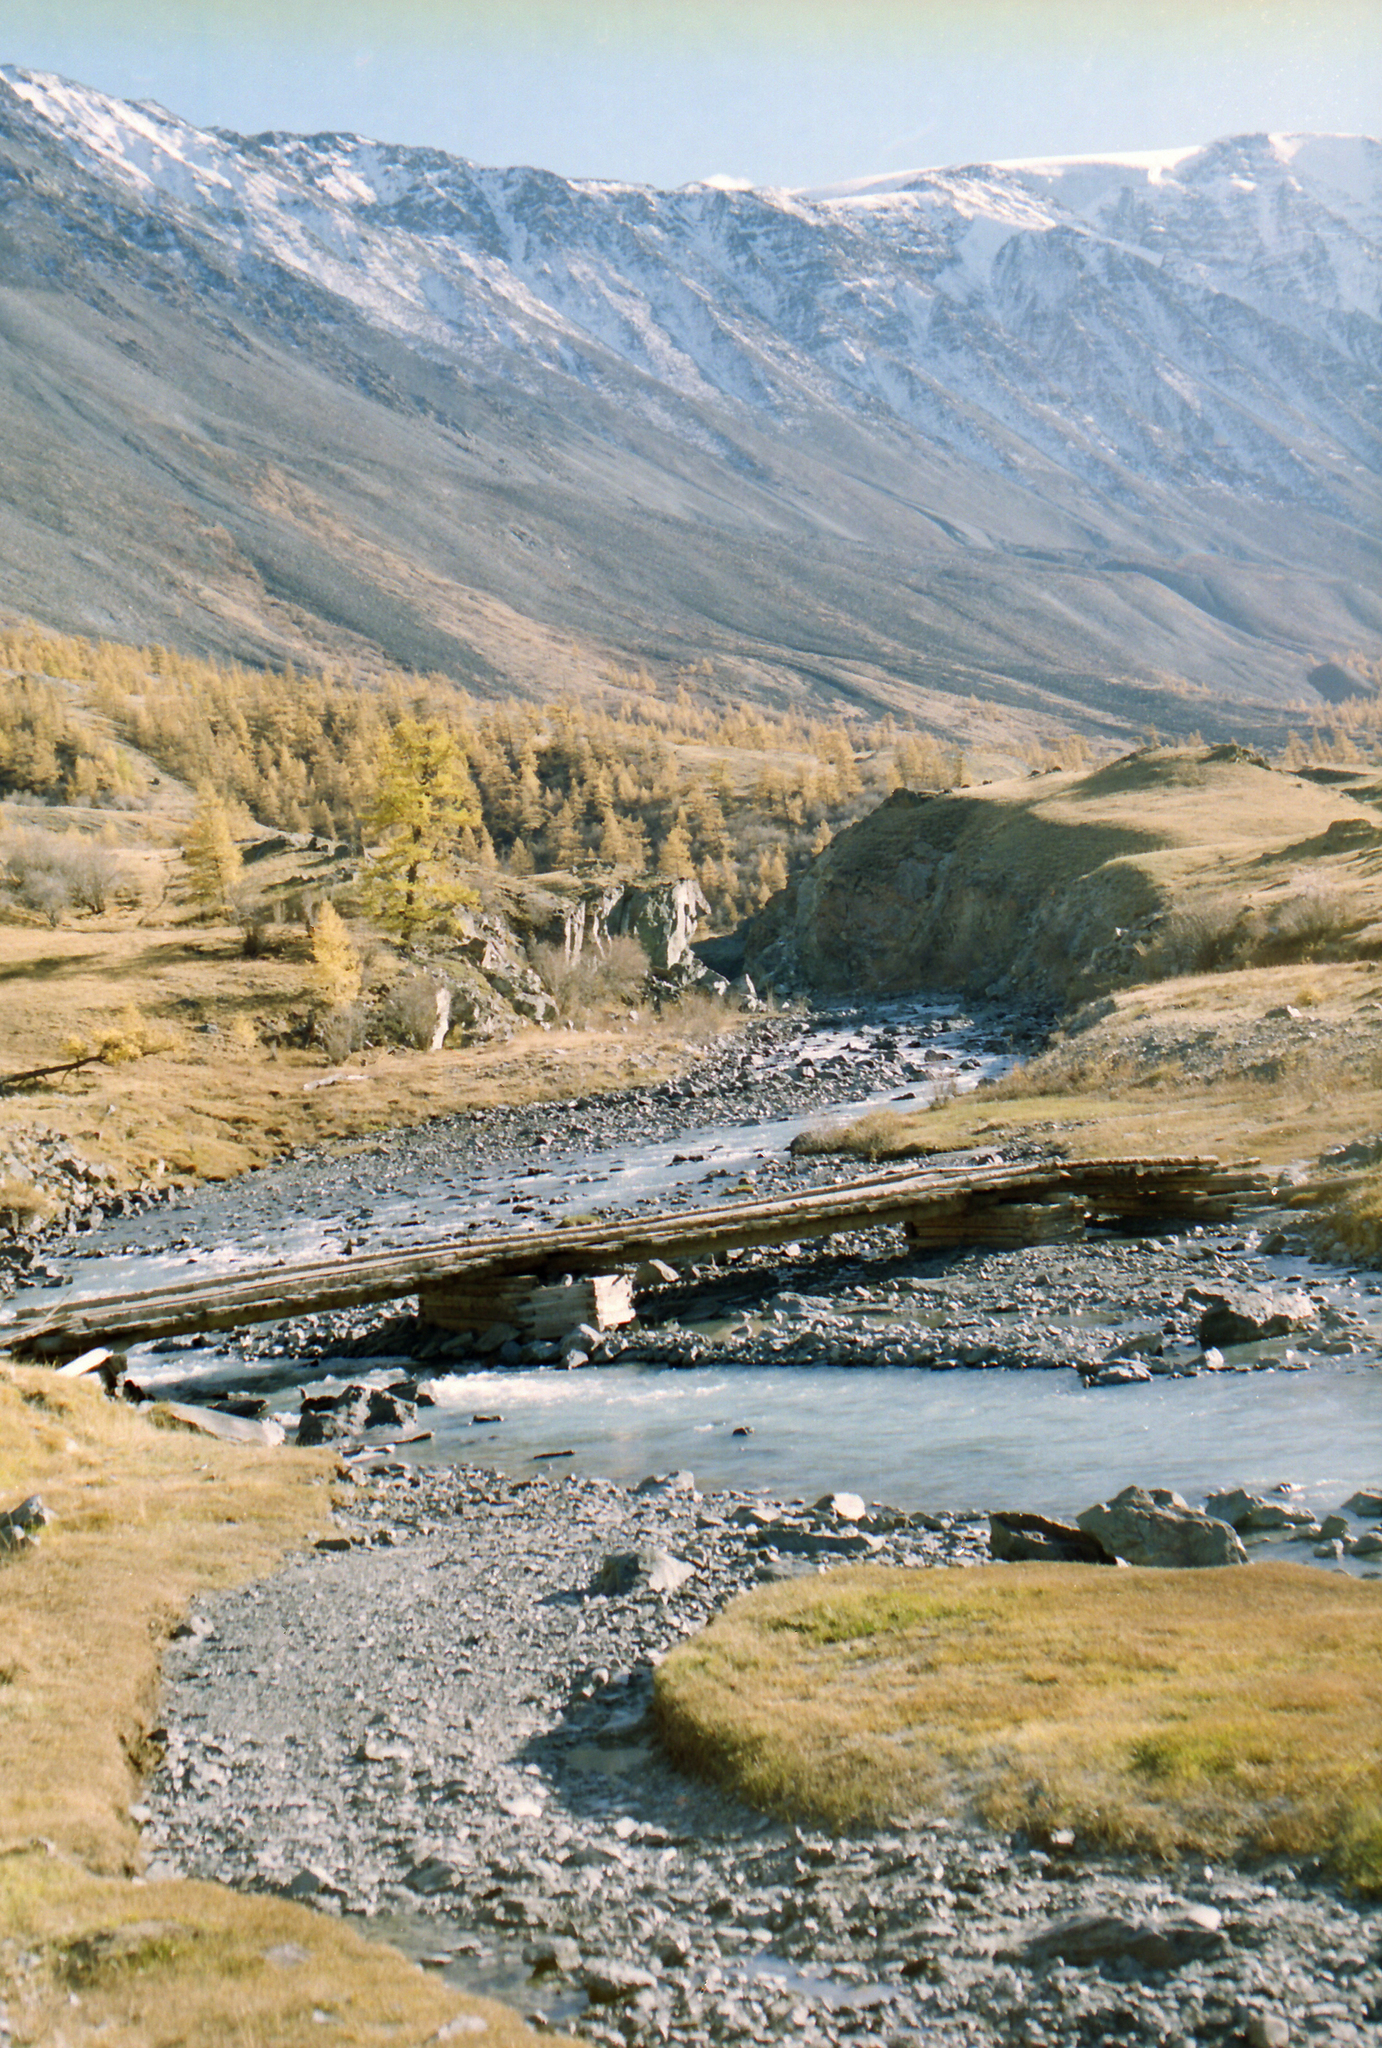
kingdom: Plantae
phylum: Tracheophyta
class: Pinopsida
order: Pinales
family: Pinaceae
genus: Larix
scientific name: Larix sibirica
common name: Siberian larch
